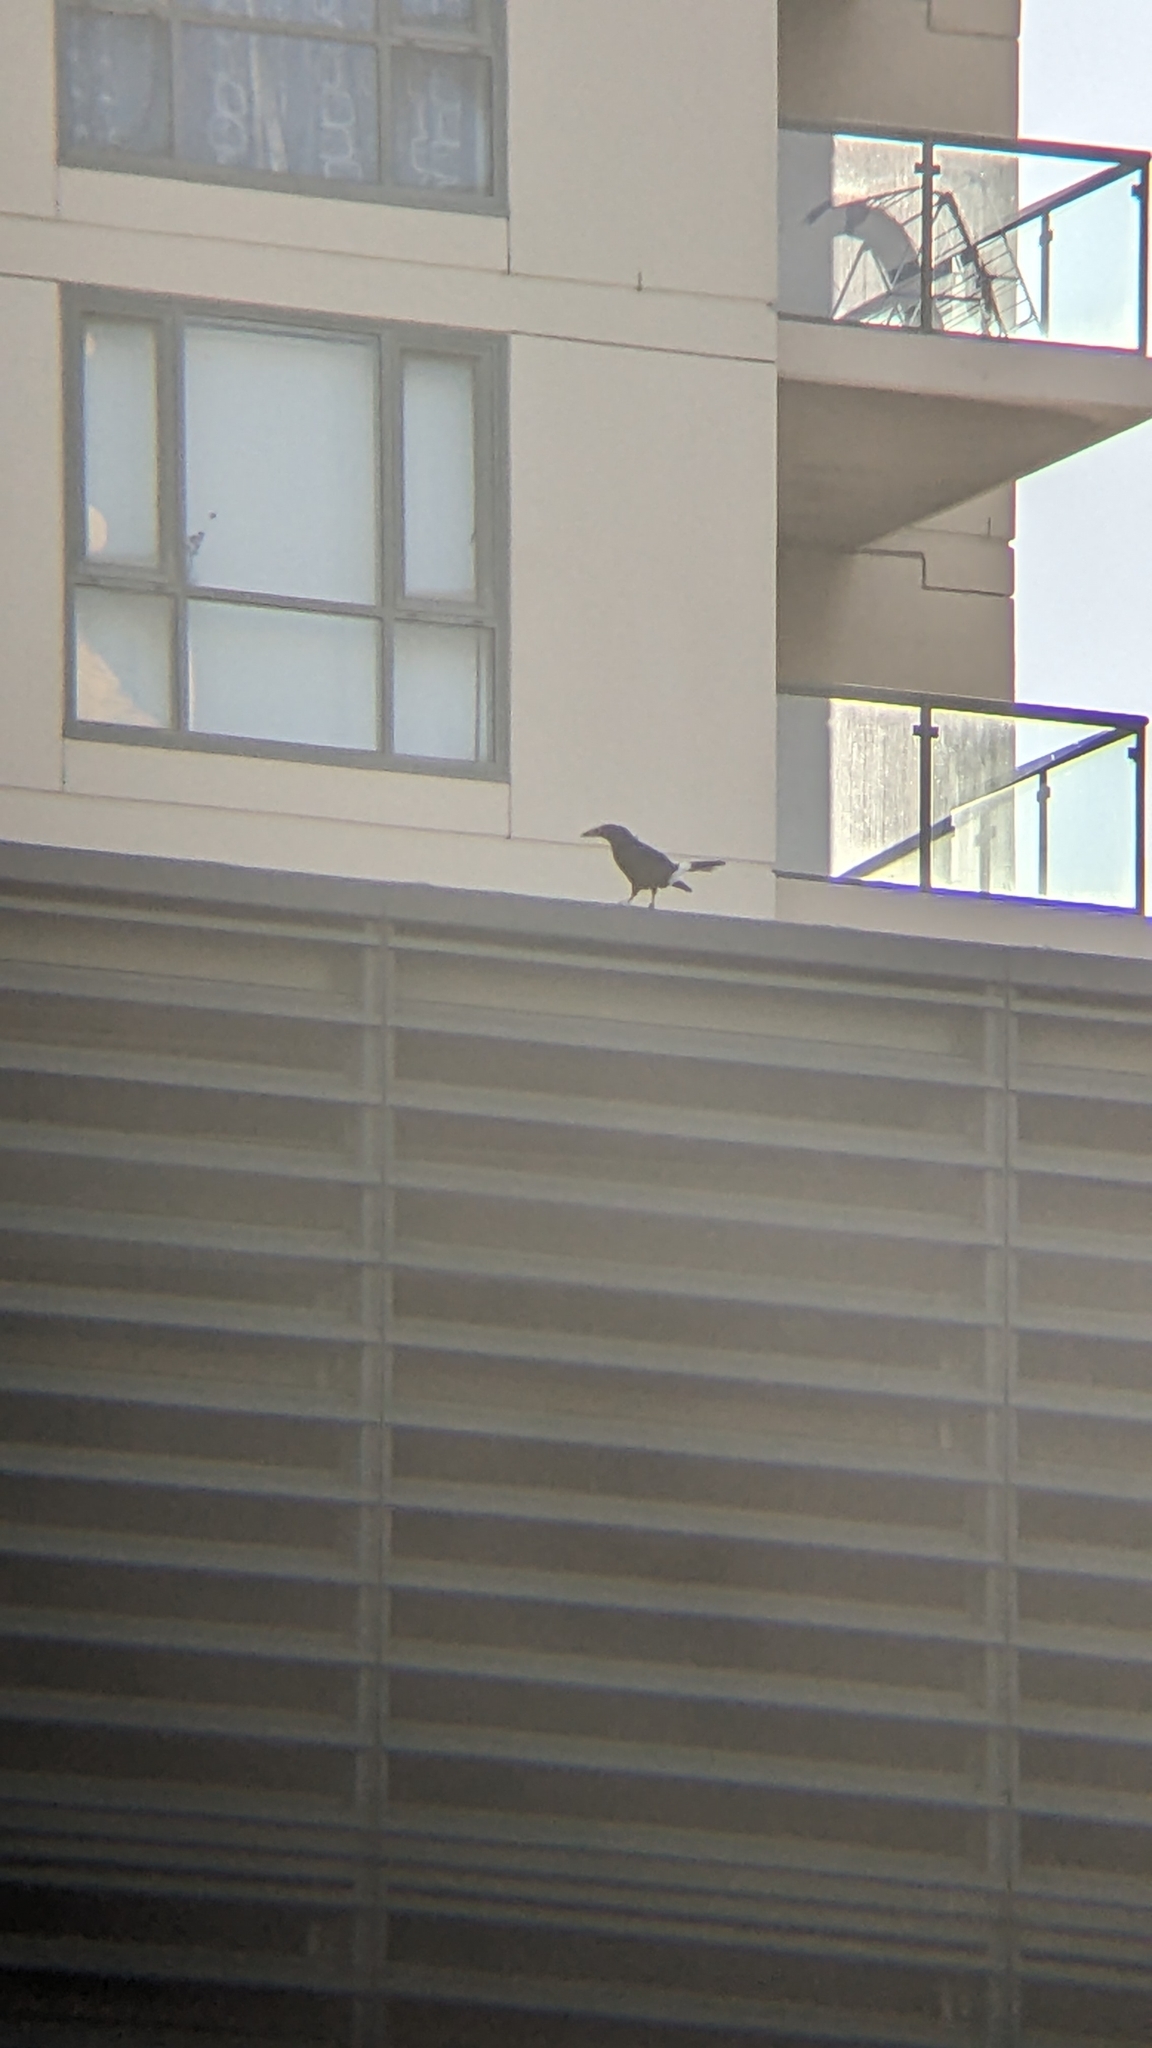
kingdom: Animalia
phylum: Chordata
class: Aves
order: Passeriformes
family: Cracticidae
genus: Strepera
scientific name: Strepera graculina
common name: Pied currawong
